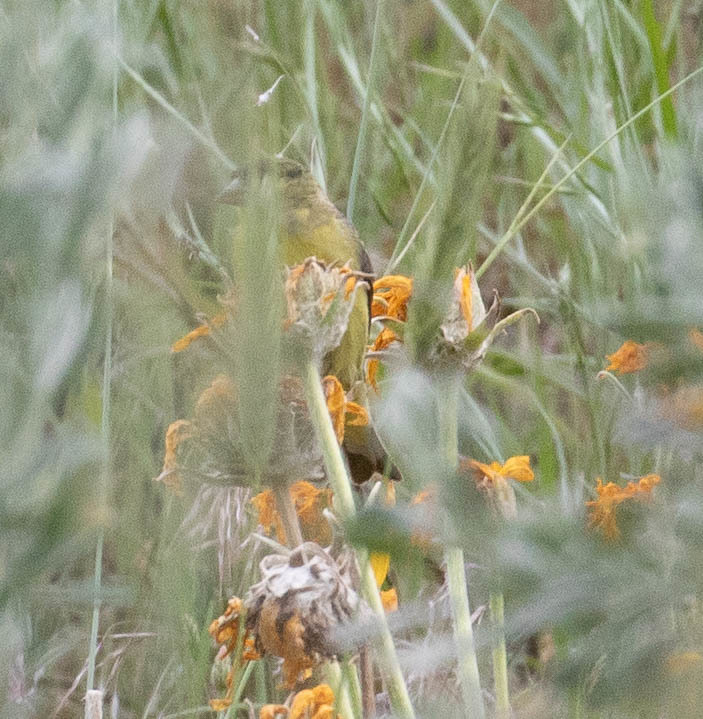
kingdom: Animalia
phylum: Chordata
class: Aves
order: Passeriformes
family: Fringillidae
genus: Spinus
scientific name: Spinus psaltria
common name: Lesser goldfinch
